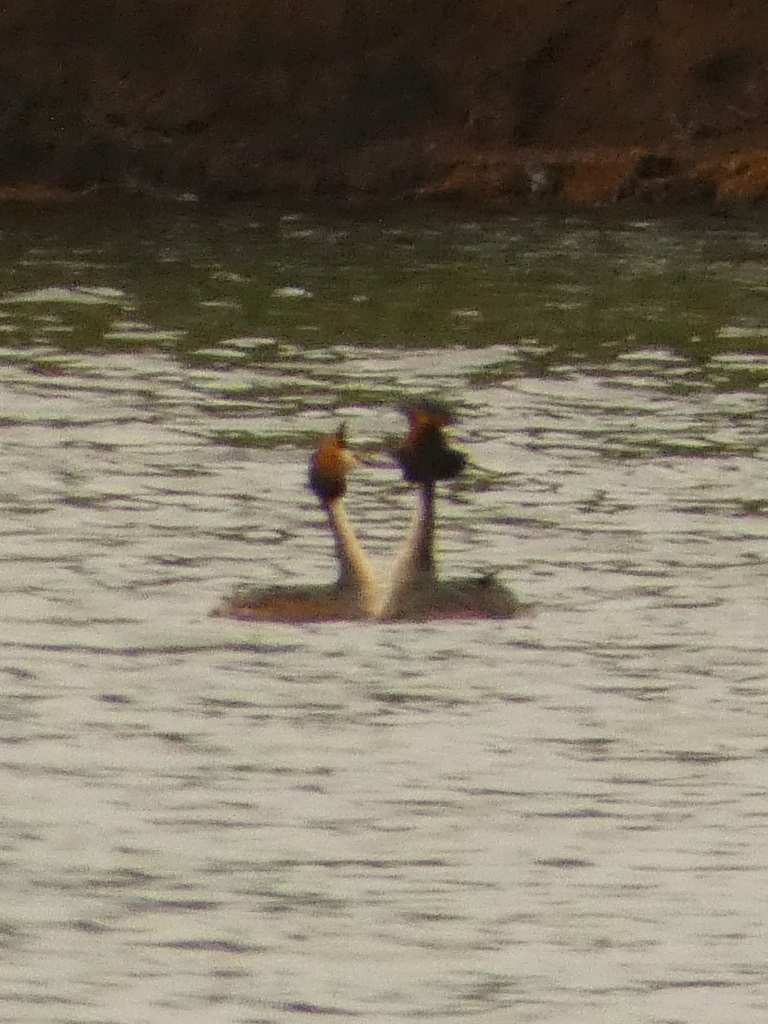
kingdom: Animalia
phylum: Chordata
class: Aves
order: Podicipediformes
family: Podicipedidae
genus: Podiceps
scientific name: Podiceps cristatus
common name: Great crested grebe
